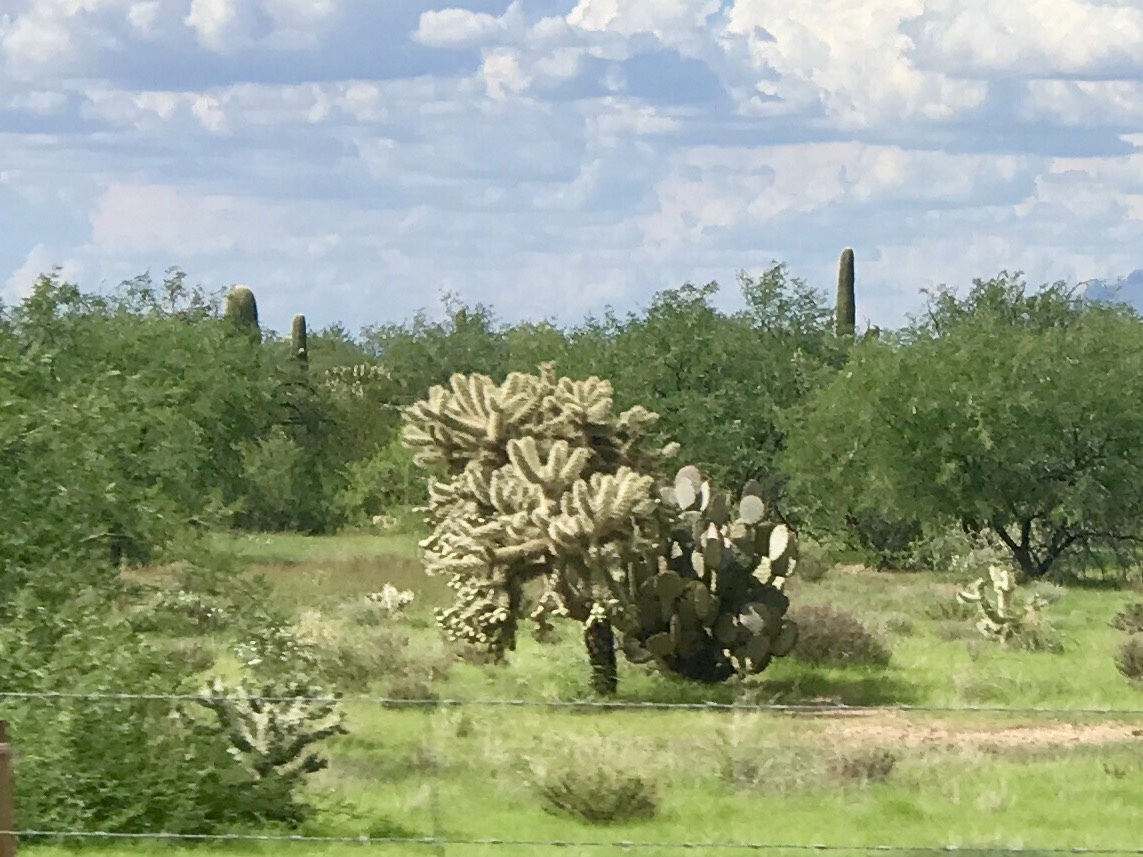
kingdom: Plantae
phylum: Tracheophyta
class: Magnoliopsida
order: Caryophyllales
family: Cactaceae
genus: Cylindropuntia
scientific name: Cylindropuntia fulgida
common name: Jumping cholla
